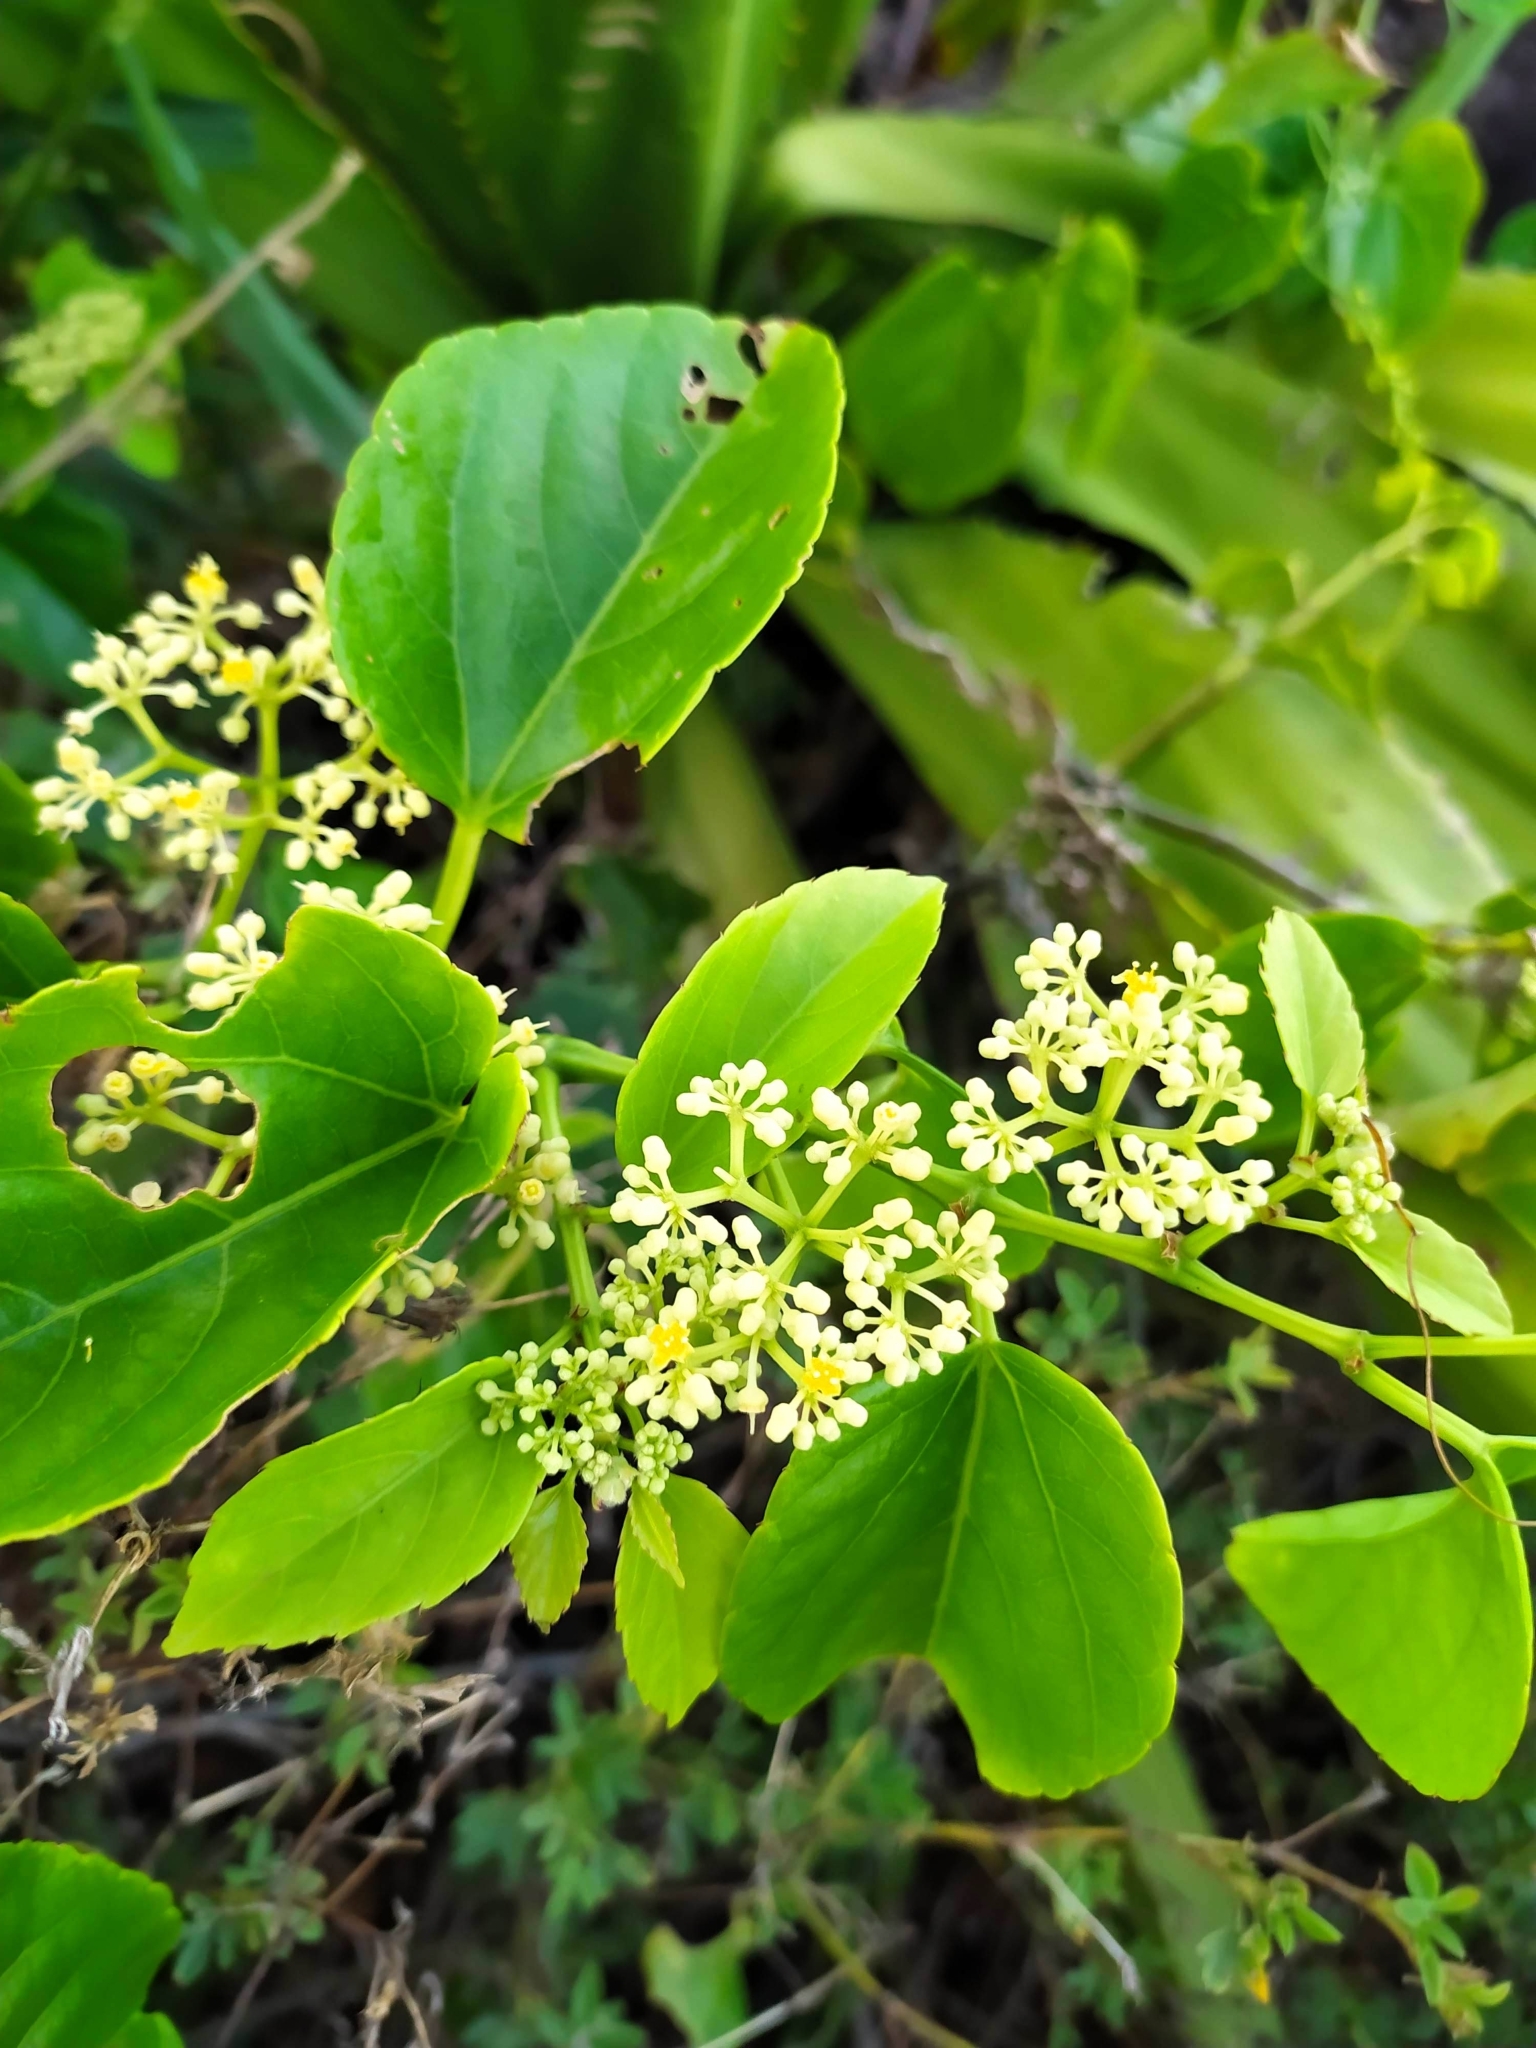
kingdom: Plantae
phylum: Tracheophyta
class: Magnoliopsida
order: Vitales
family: Vitaceae
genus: Cissus
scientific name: Cissus verticillata
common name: Princess vine
